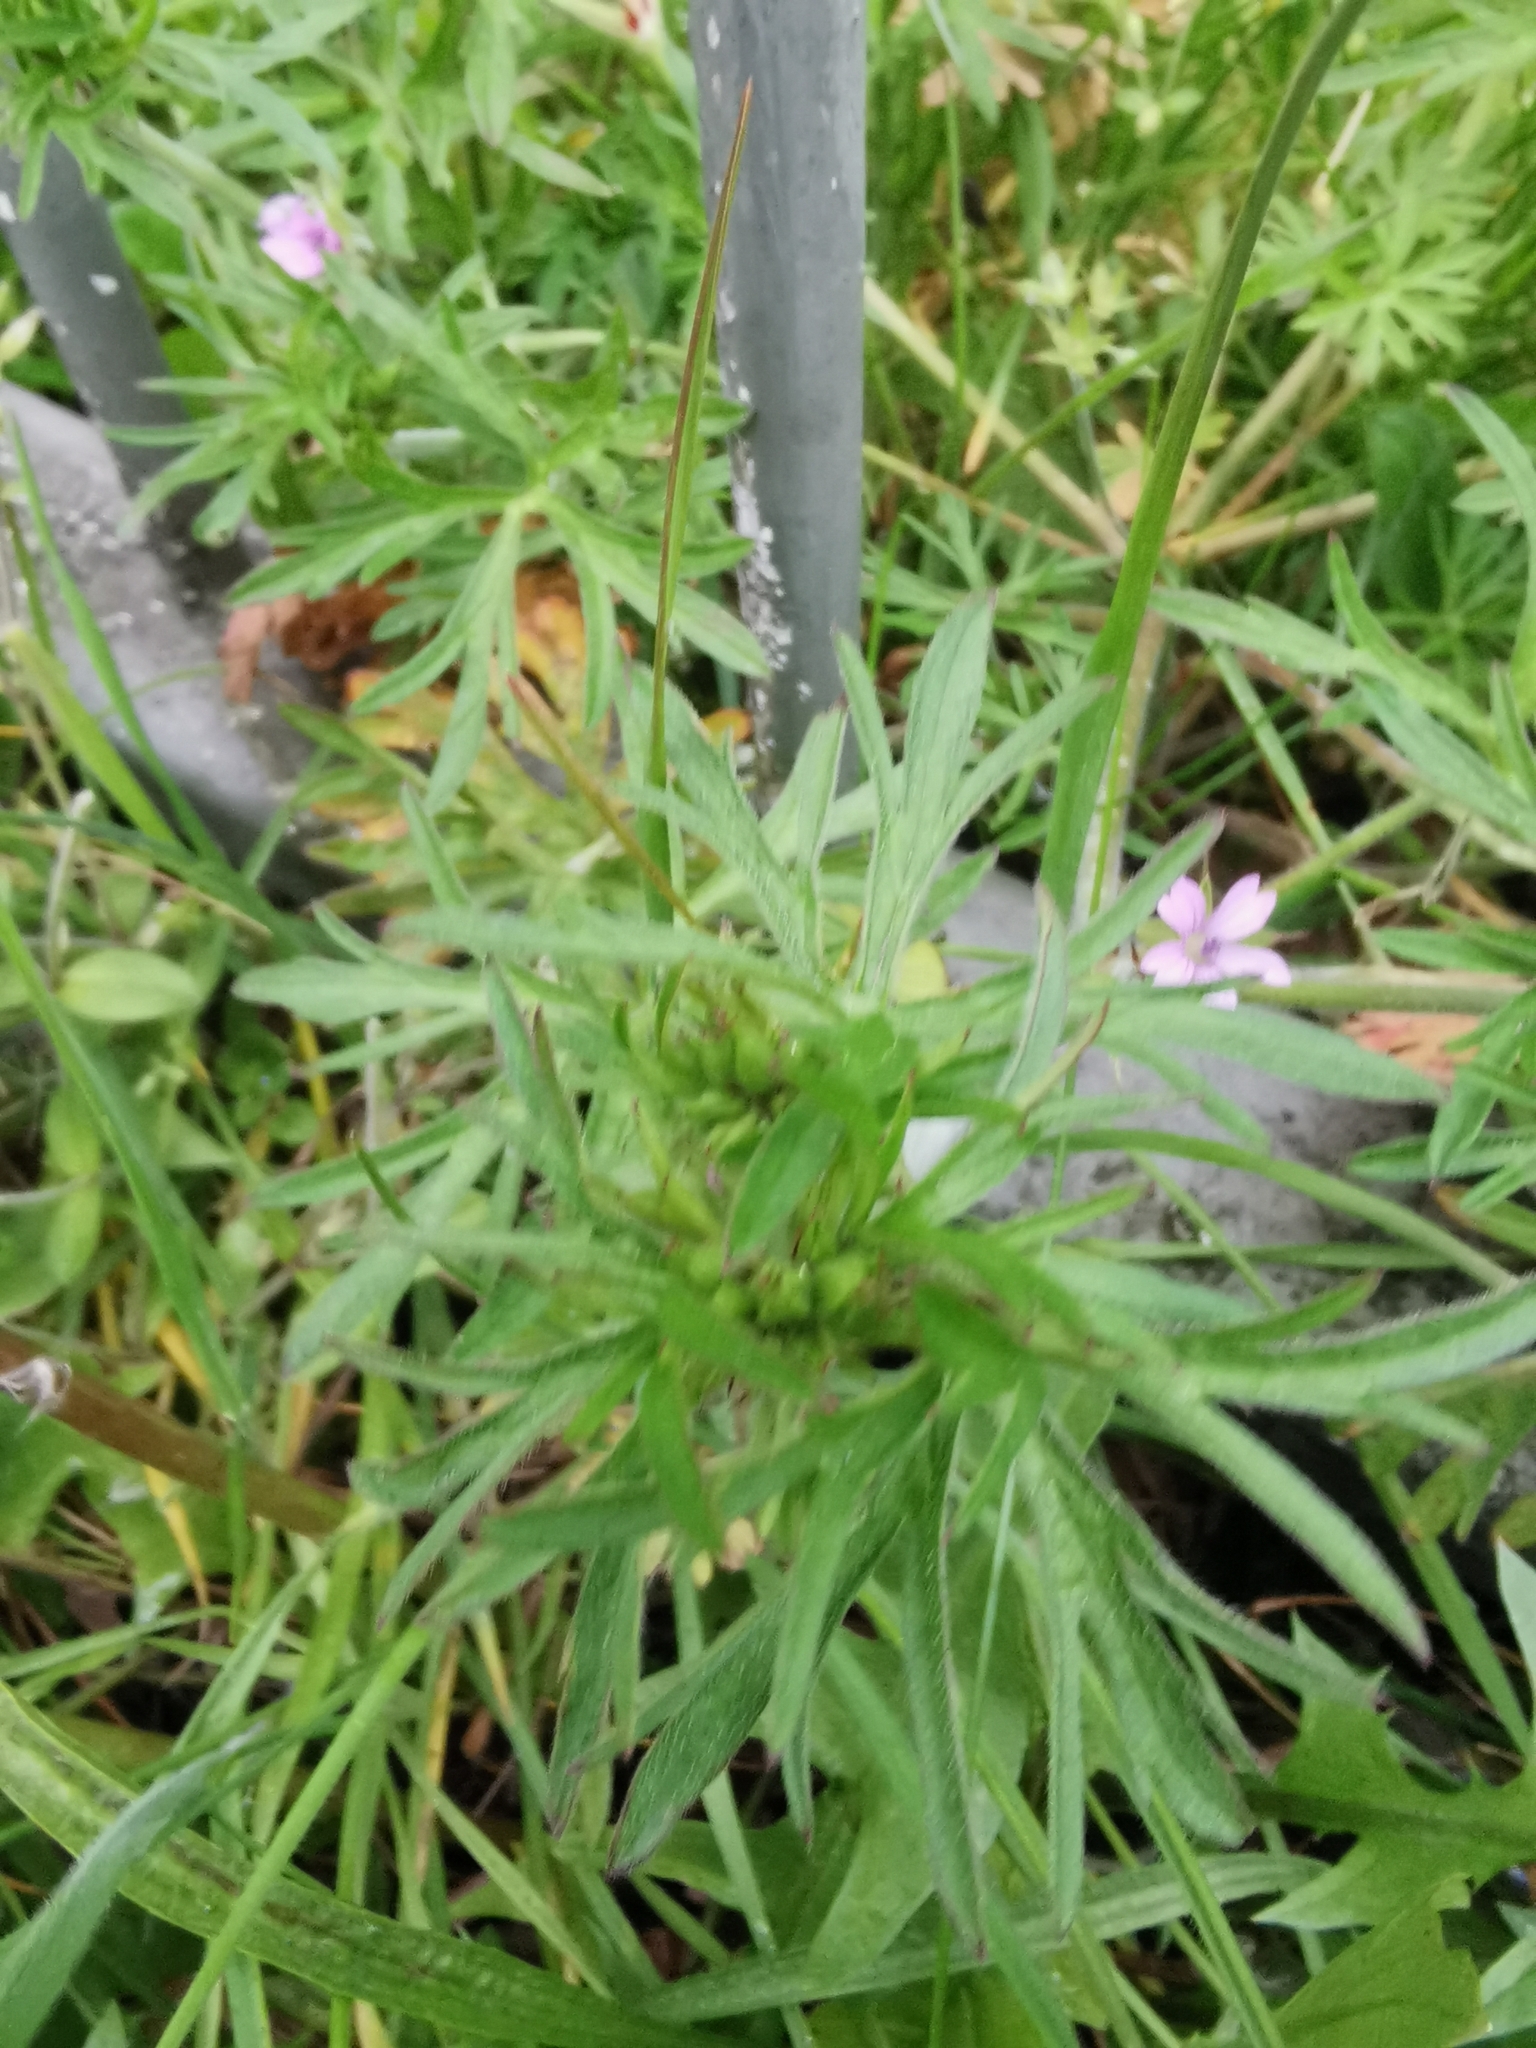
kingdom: Plantae
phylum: Tracheophyta
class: Magnoliopsida
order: Geraniales
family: Geraniaceae
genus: Geranium
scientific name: Geranium dissectum
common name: Cut-leaved crane's-bill
